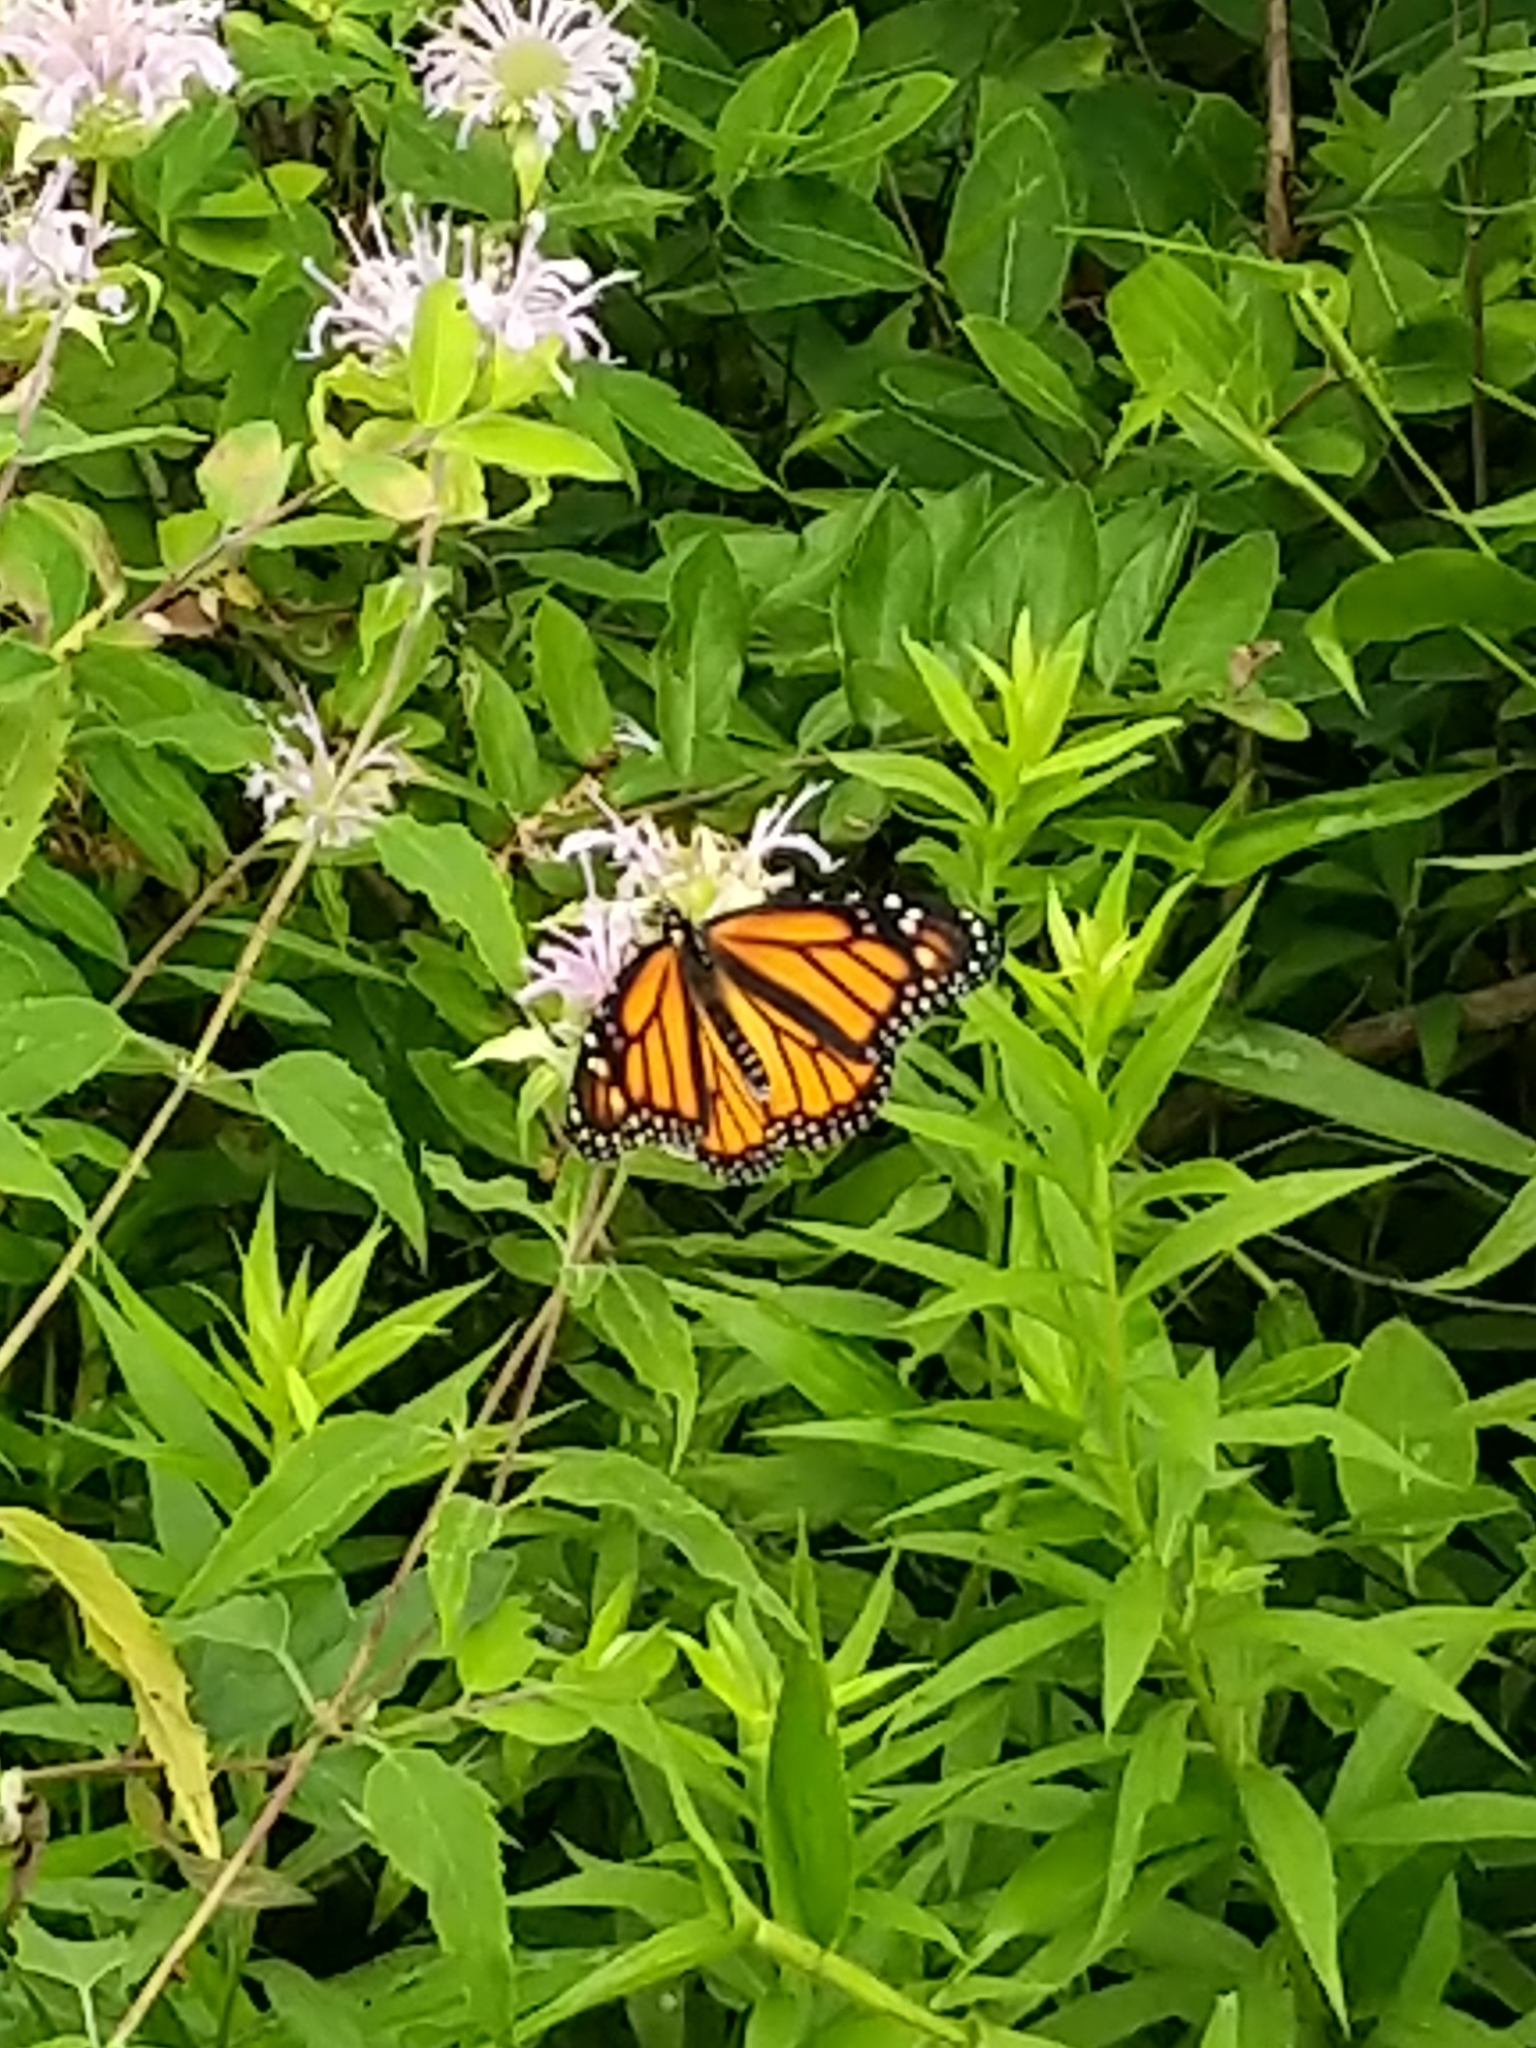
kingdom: Animalia
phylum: Arthropoda
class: Insecta
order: Lepidoptera
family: Nymphalidae
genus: Danaus
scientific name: Danaus plexippus
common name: Monarch
